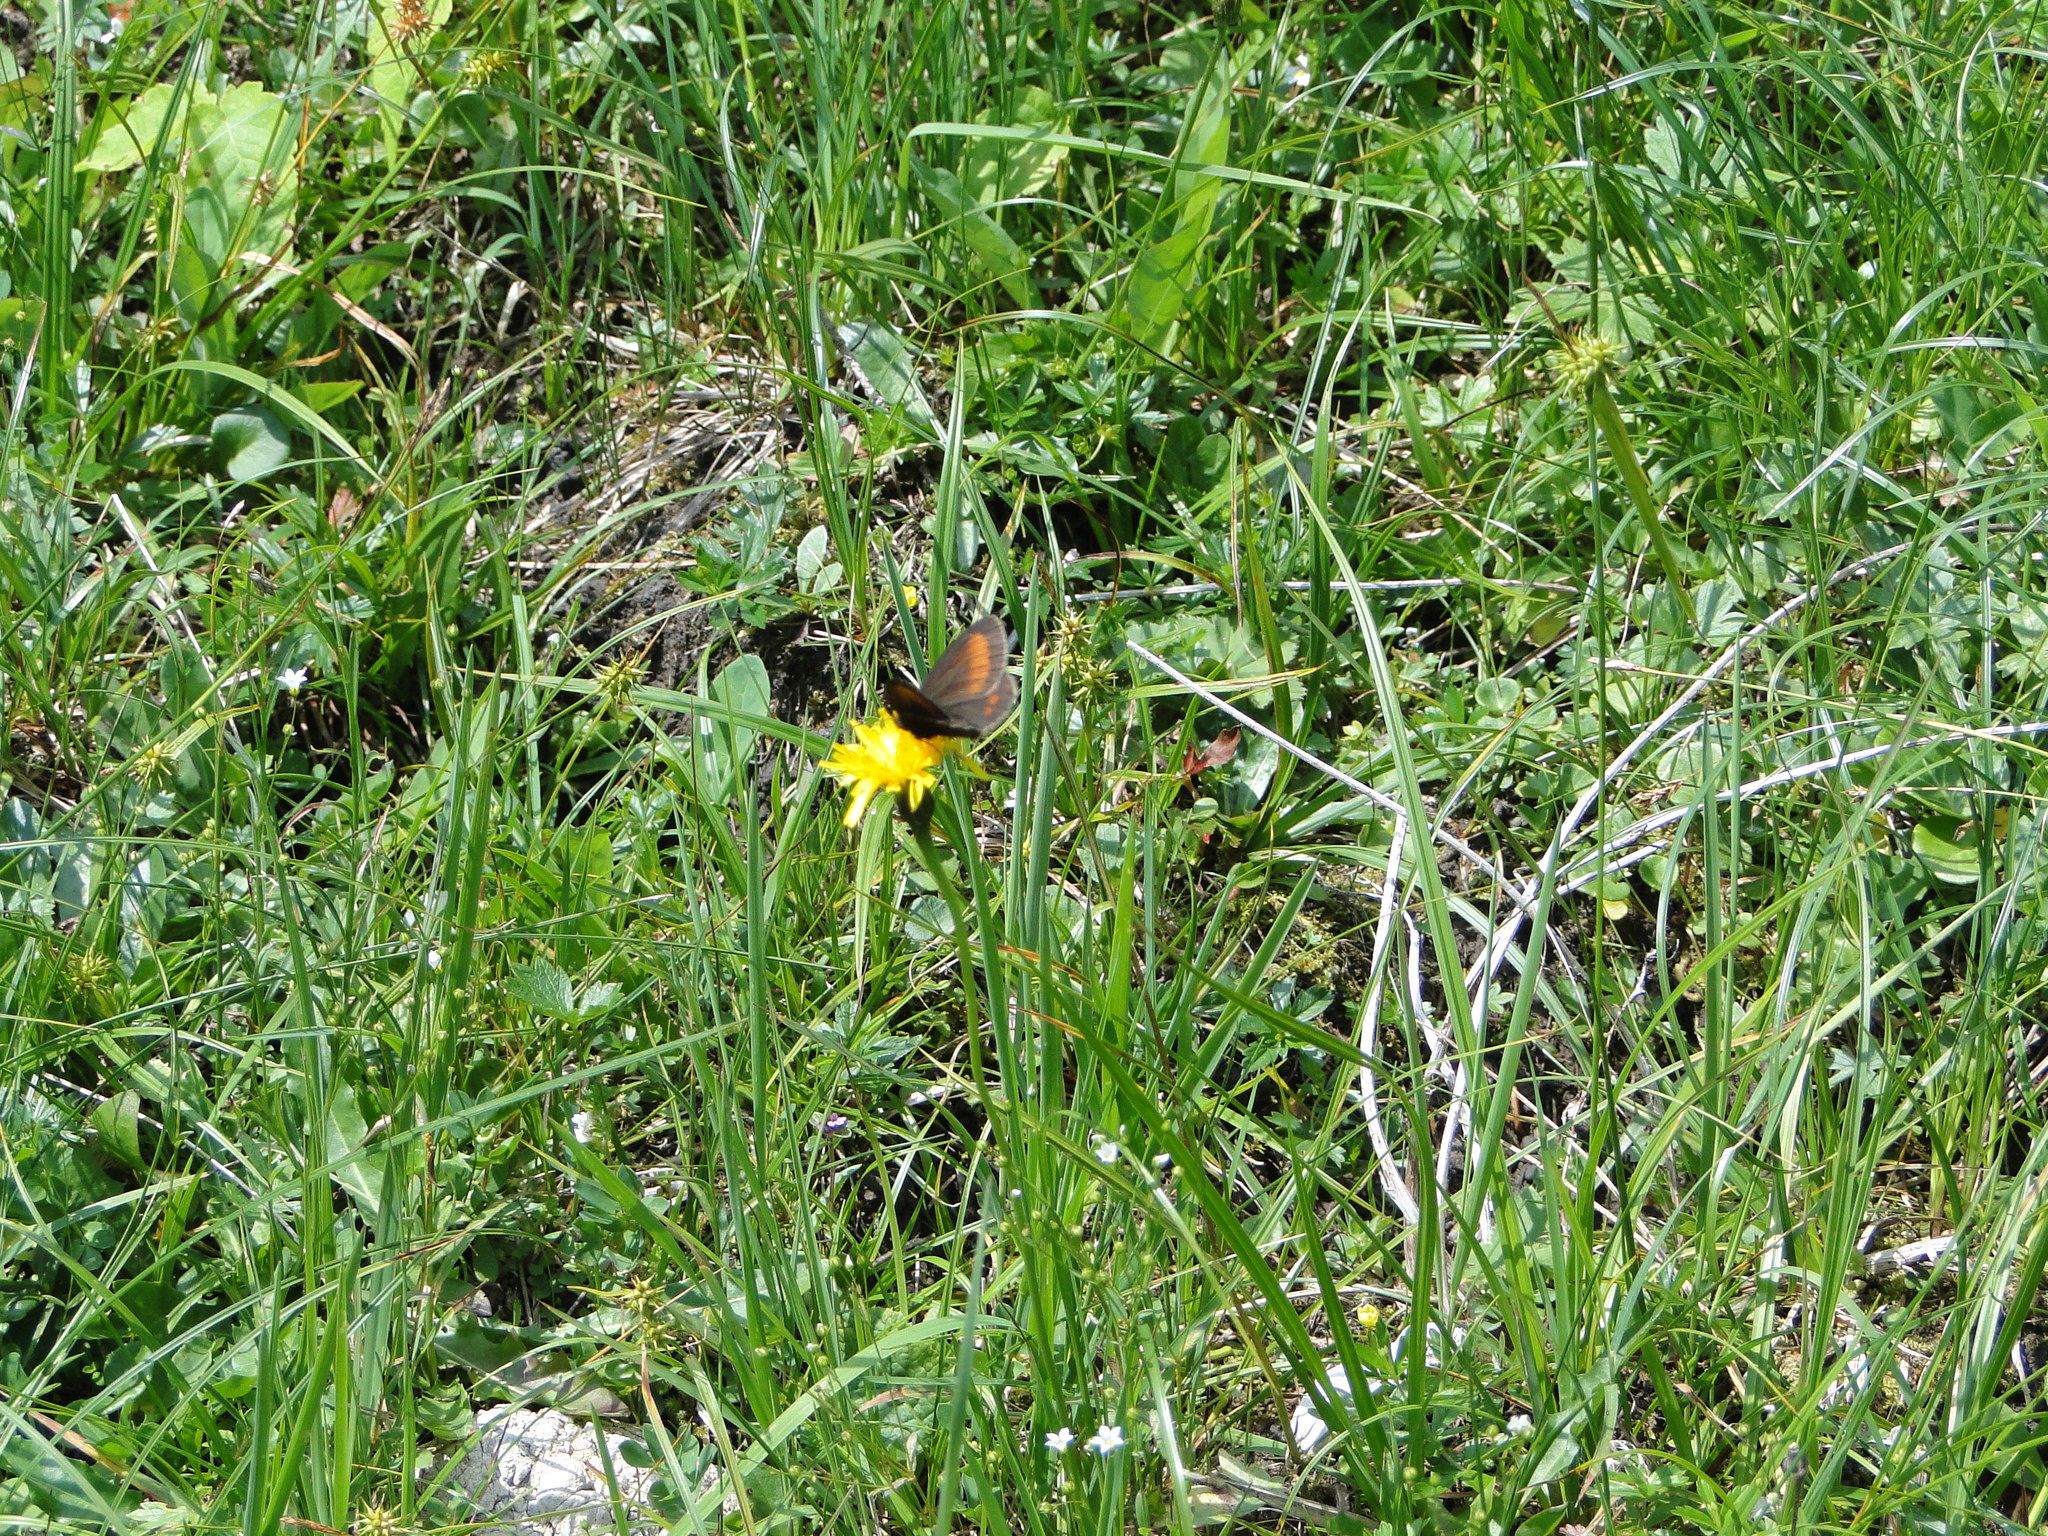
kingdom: Animalia
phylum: Arthropoda
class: Insecta
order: Lepidoptera
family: Nymphalidae
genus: Erebia
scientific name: Erebia pharte
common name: Blind ringlet
